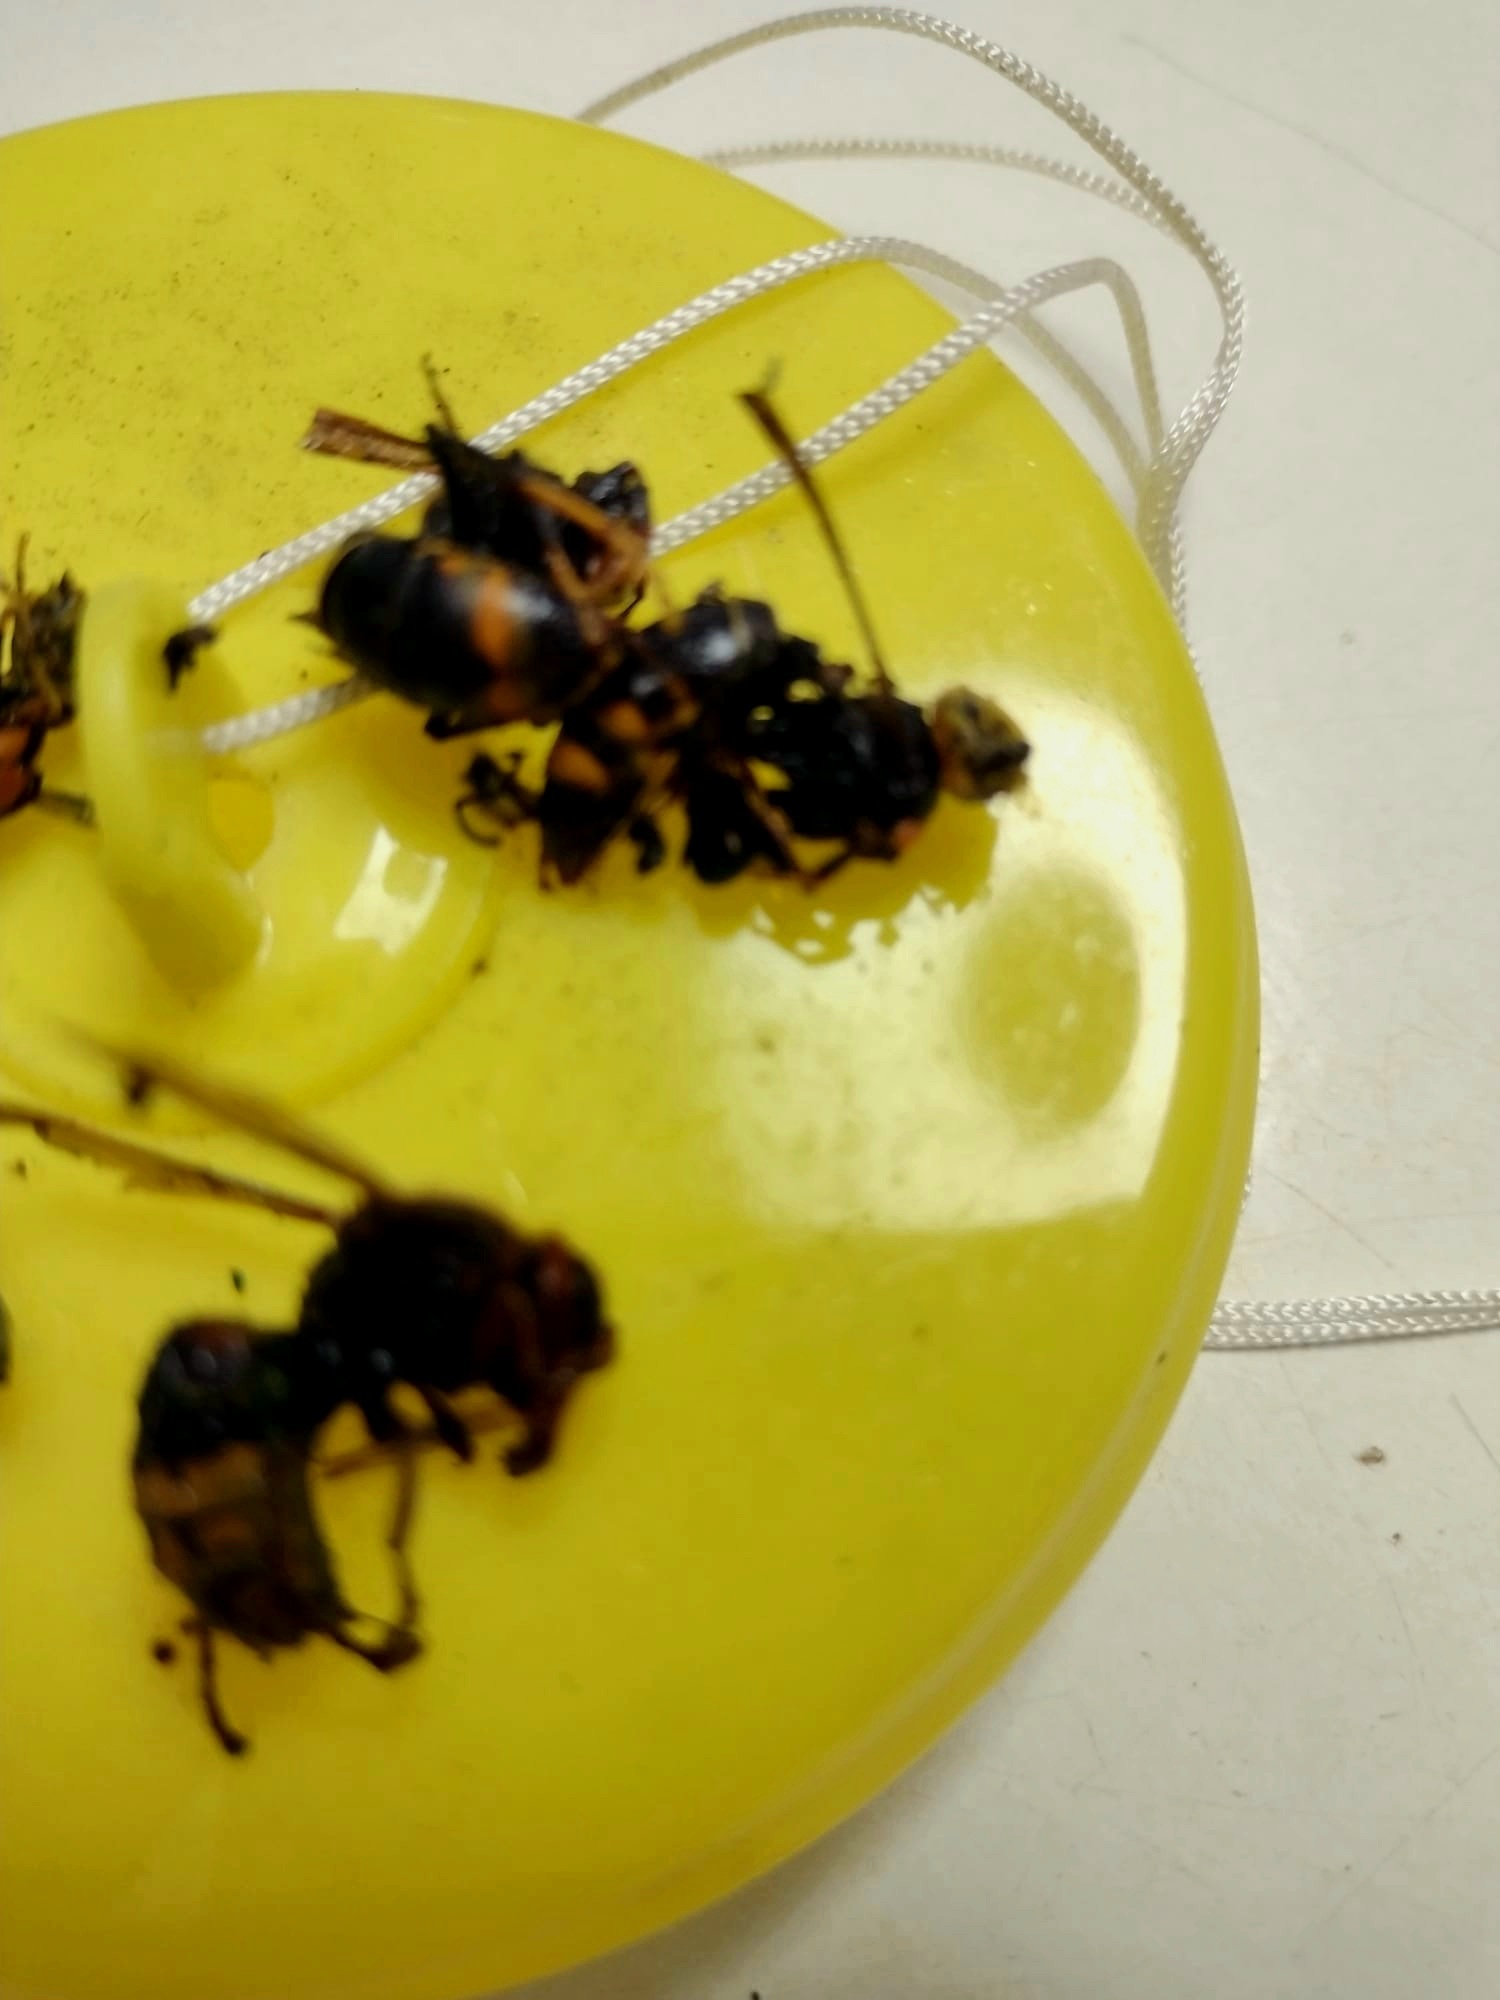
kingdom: Animalia
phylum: Arthropoda
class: Insecta
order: Hymenoptera
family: Vespidae
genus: Vespa
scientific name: Vespa velutina
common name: Asian hornet
